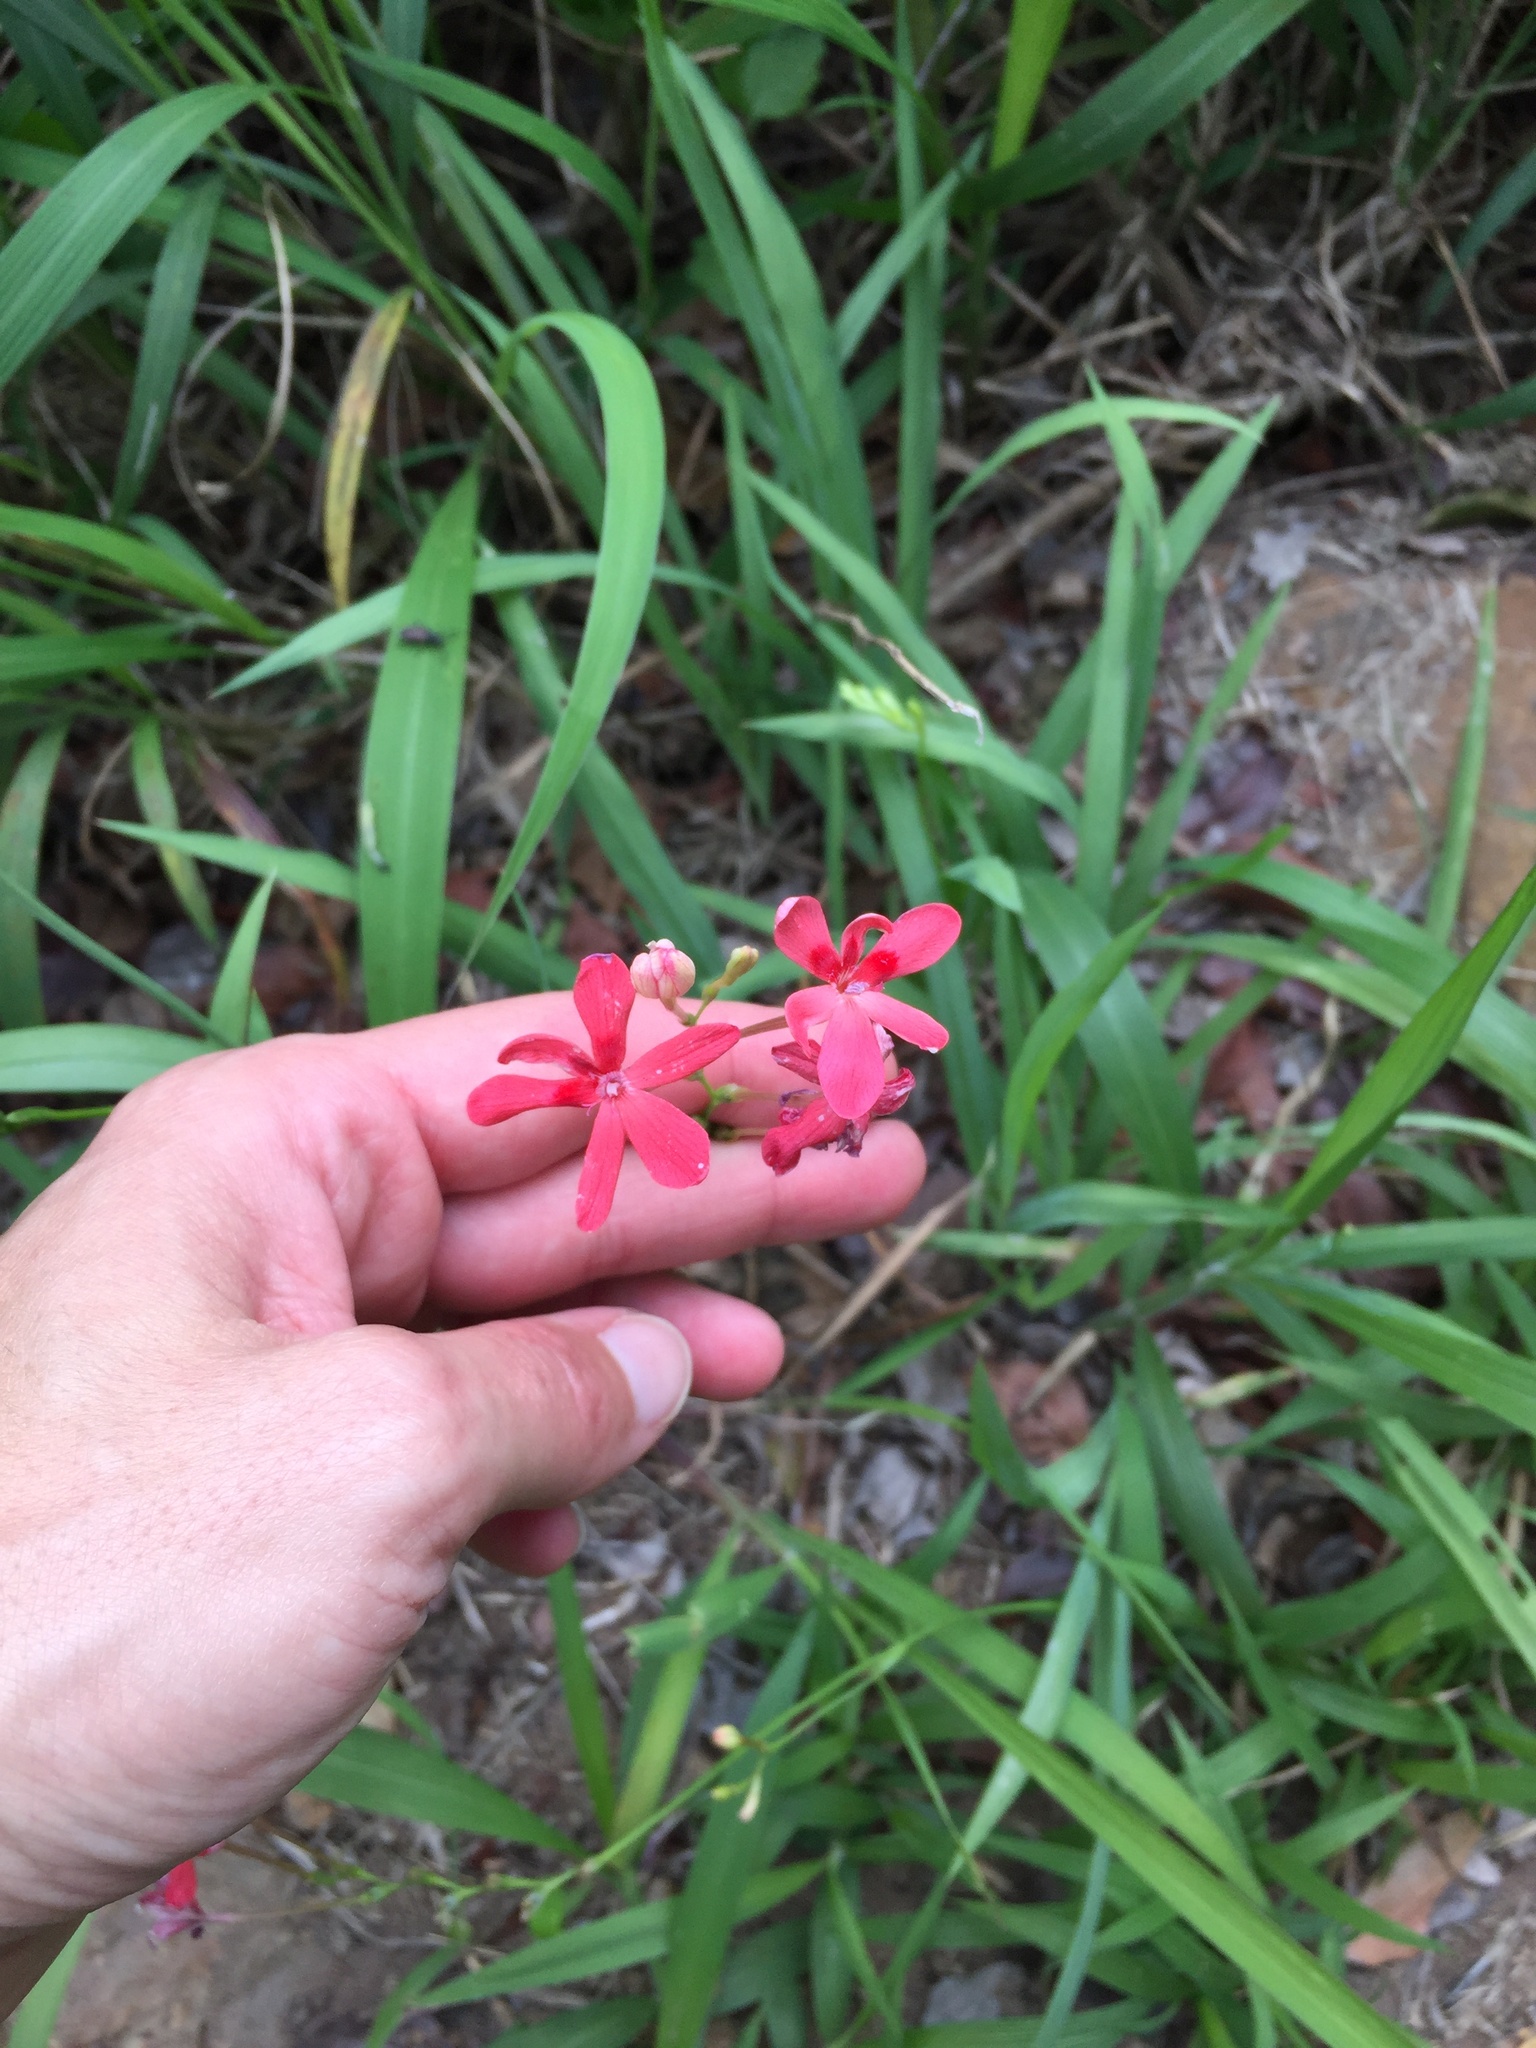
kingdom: Plantae
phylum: Tracheophyta
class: Liliopsida
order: Asparagales
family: Iridaceae
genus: Freesia
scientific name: Freesia laxa
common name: False freesia
